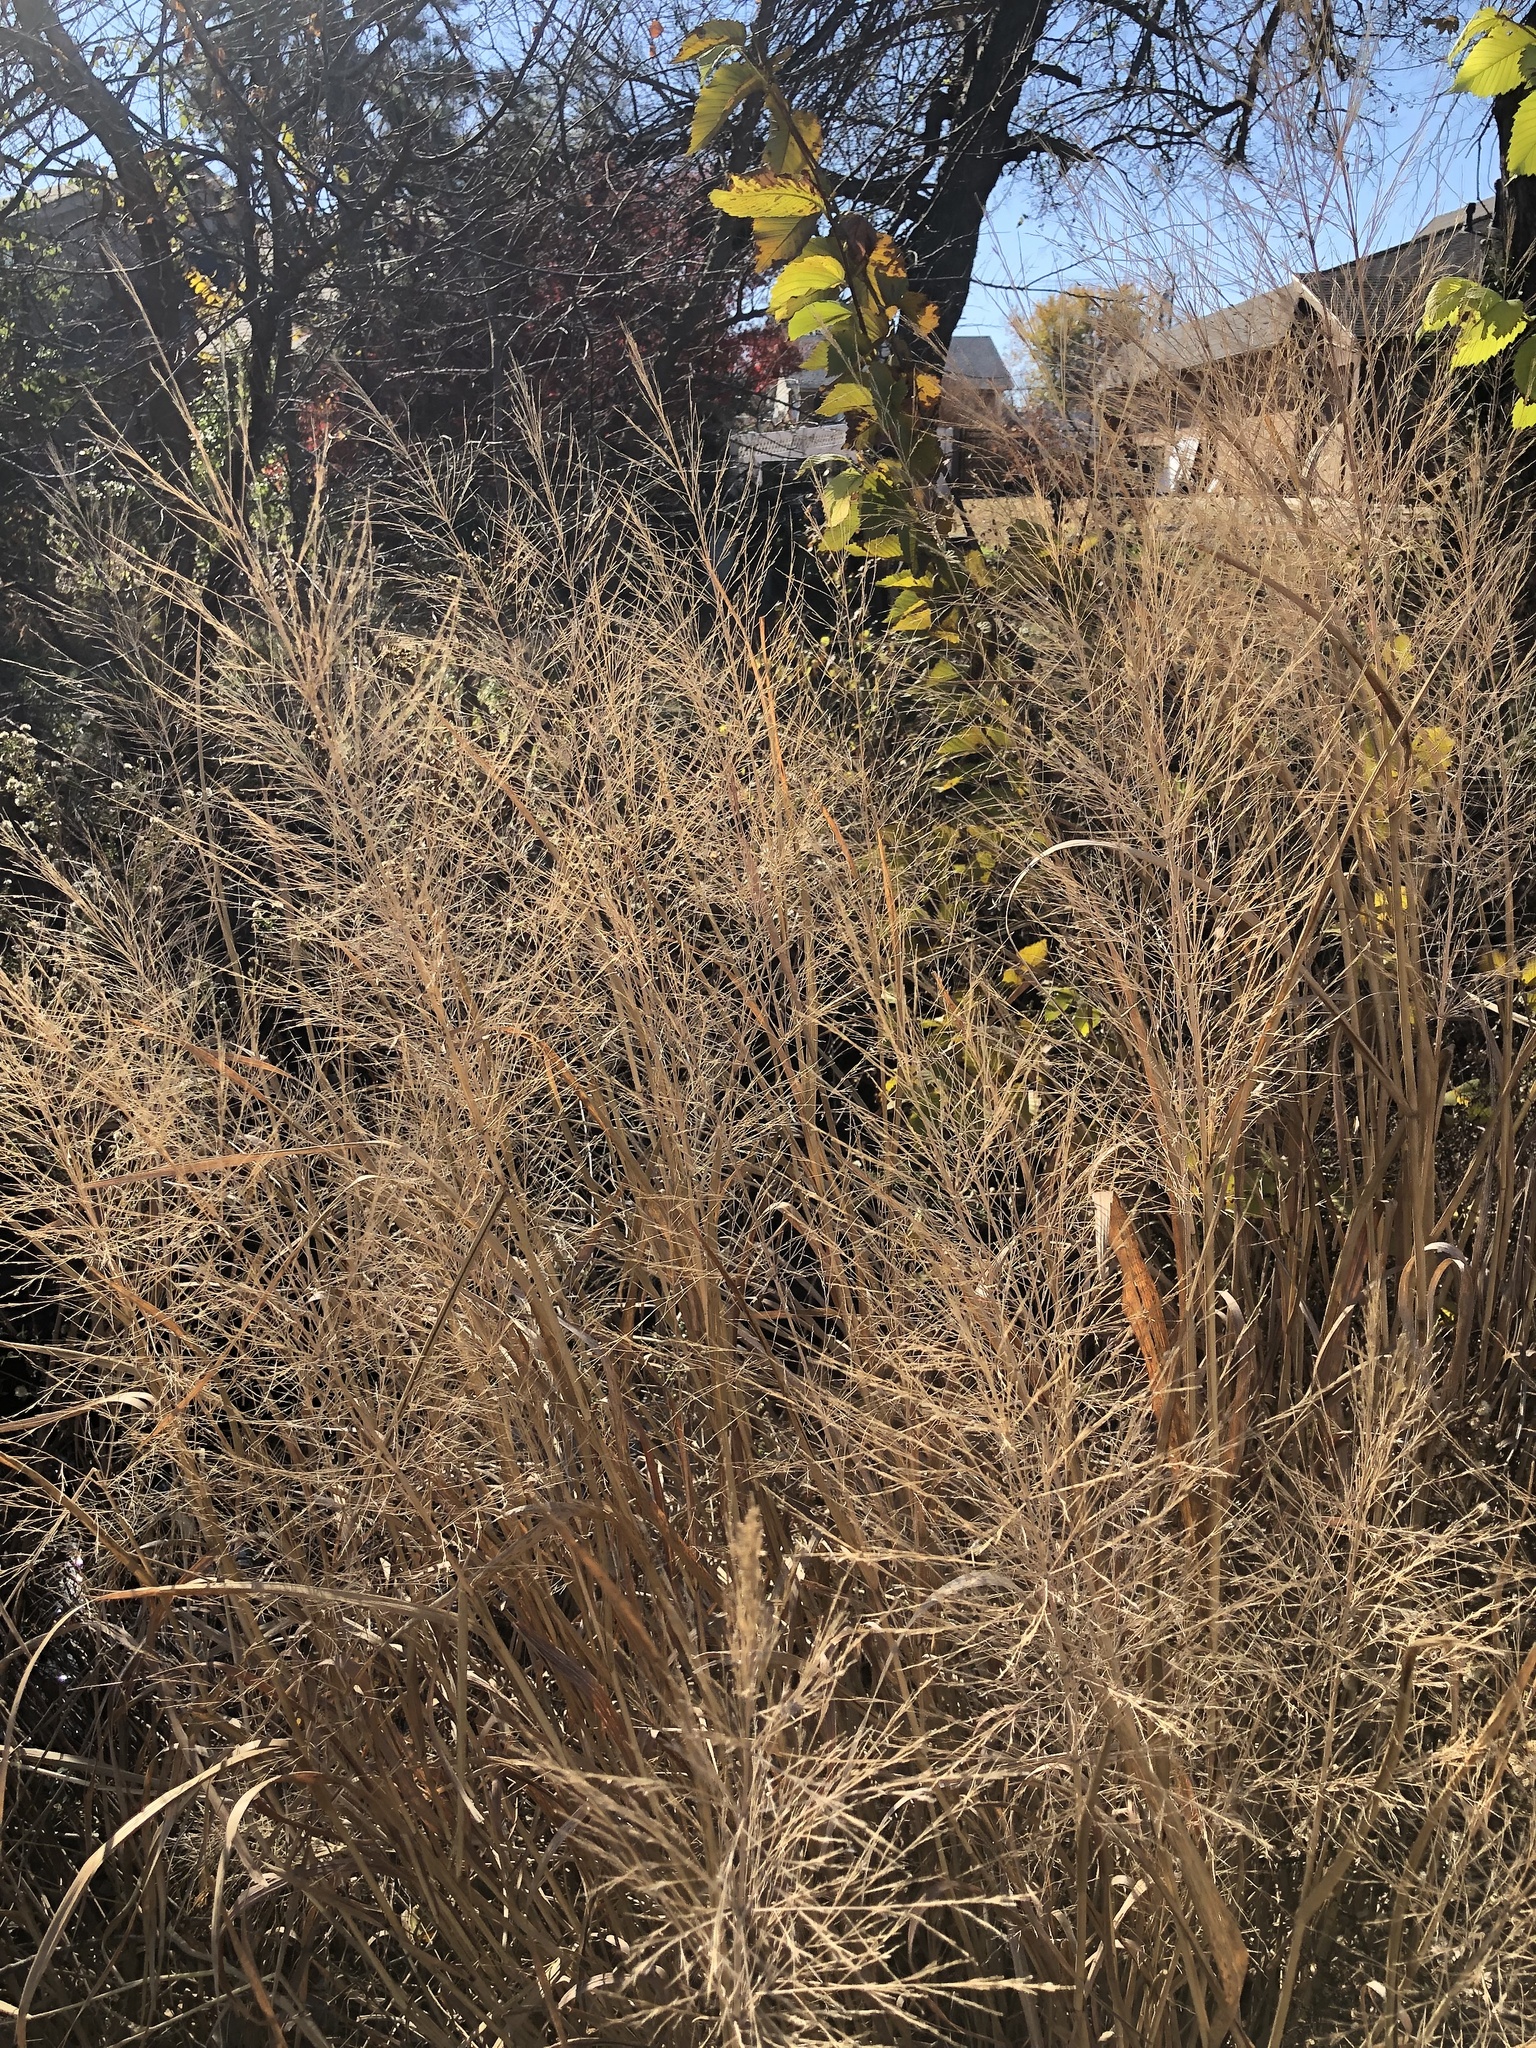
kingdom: Plantae
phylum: Tracheophyta
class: Liliopsida
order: Poales
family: Poaceae
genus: Panicum
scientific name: Panicum virgatum
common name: Switchgrass
